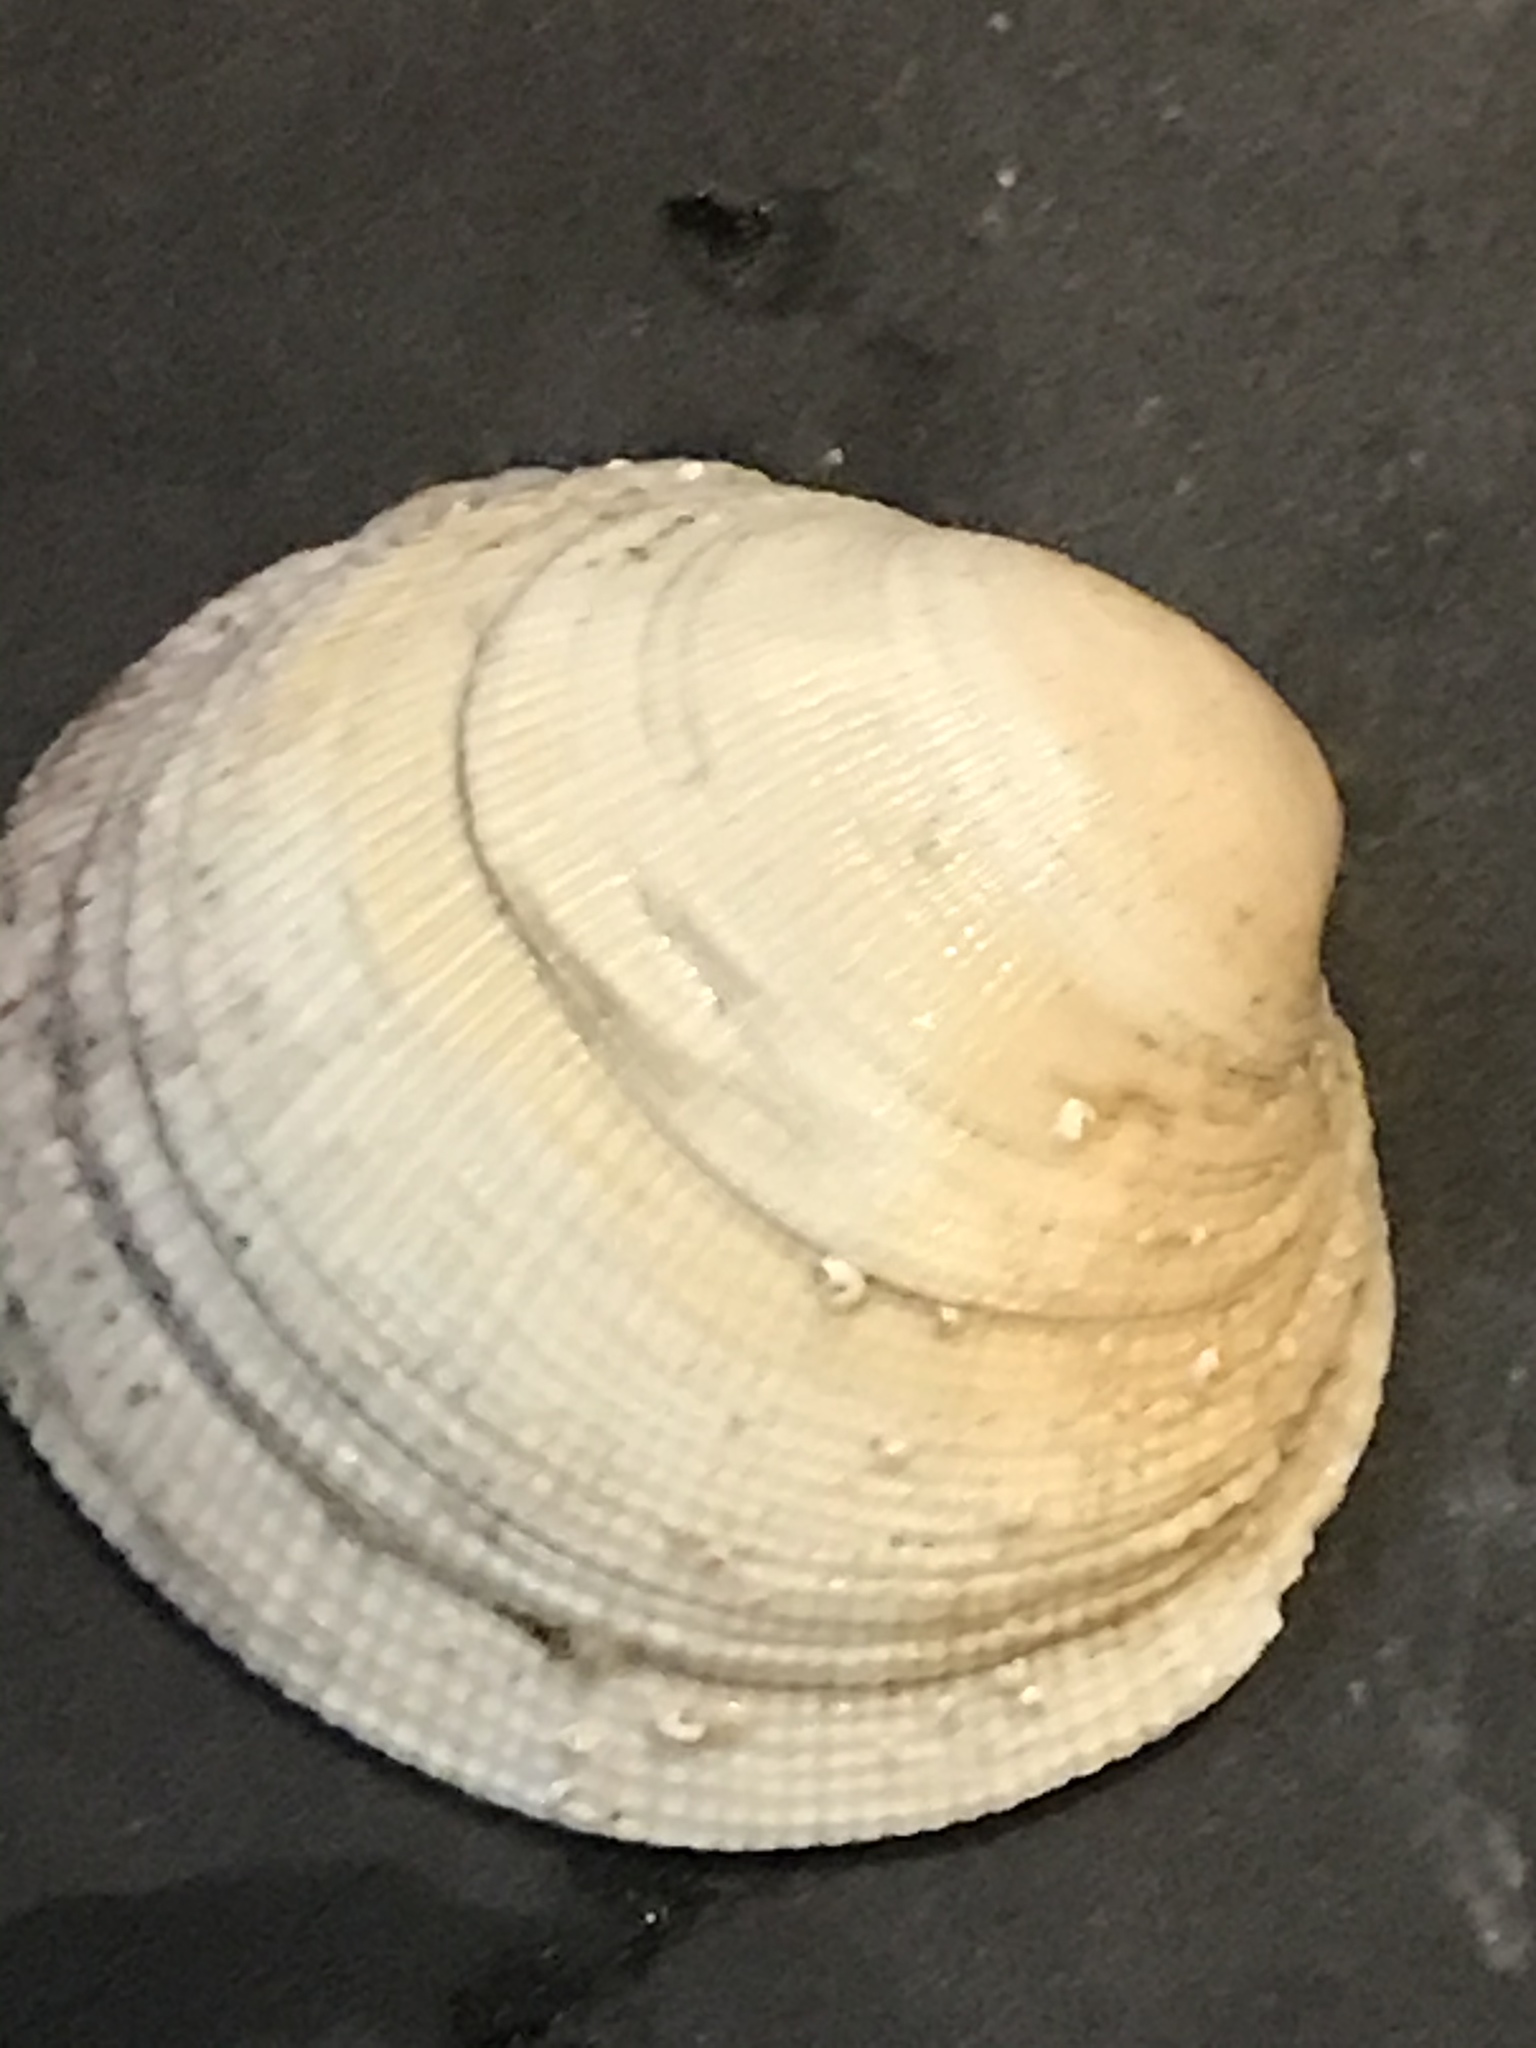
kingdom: Animalia
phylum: Mollusca
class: Bivalvia
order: Venerida
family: Veneridae
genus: Leukoma
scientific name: Leukoma staminea
